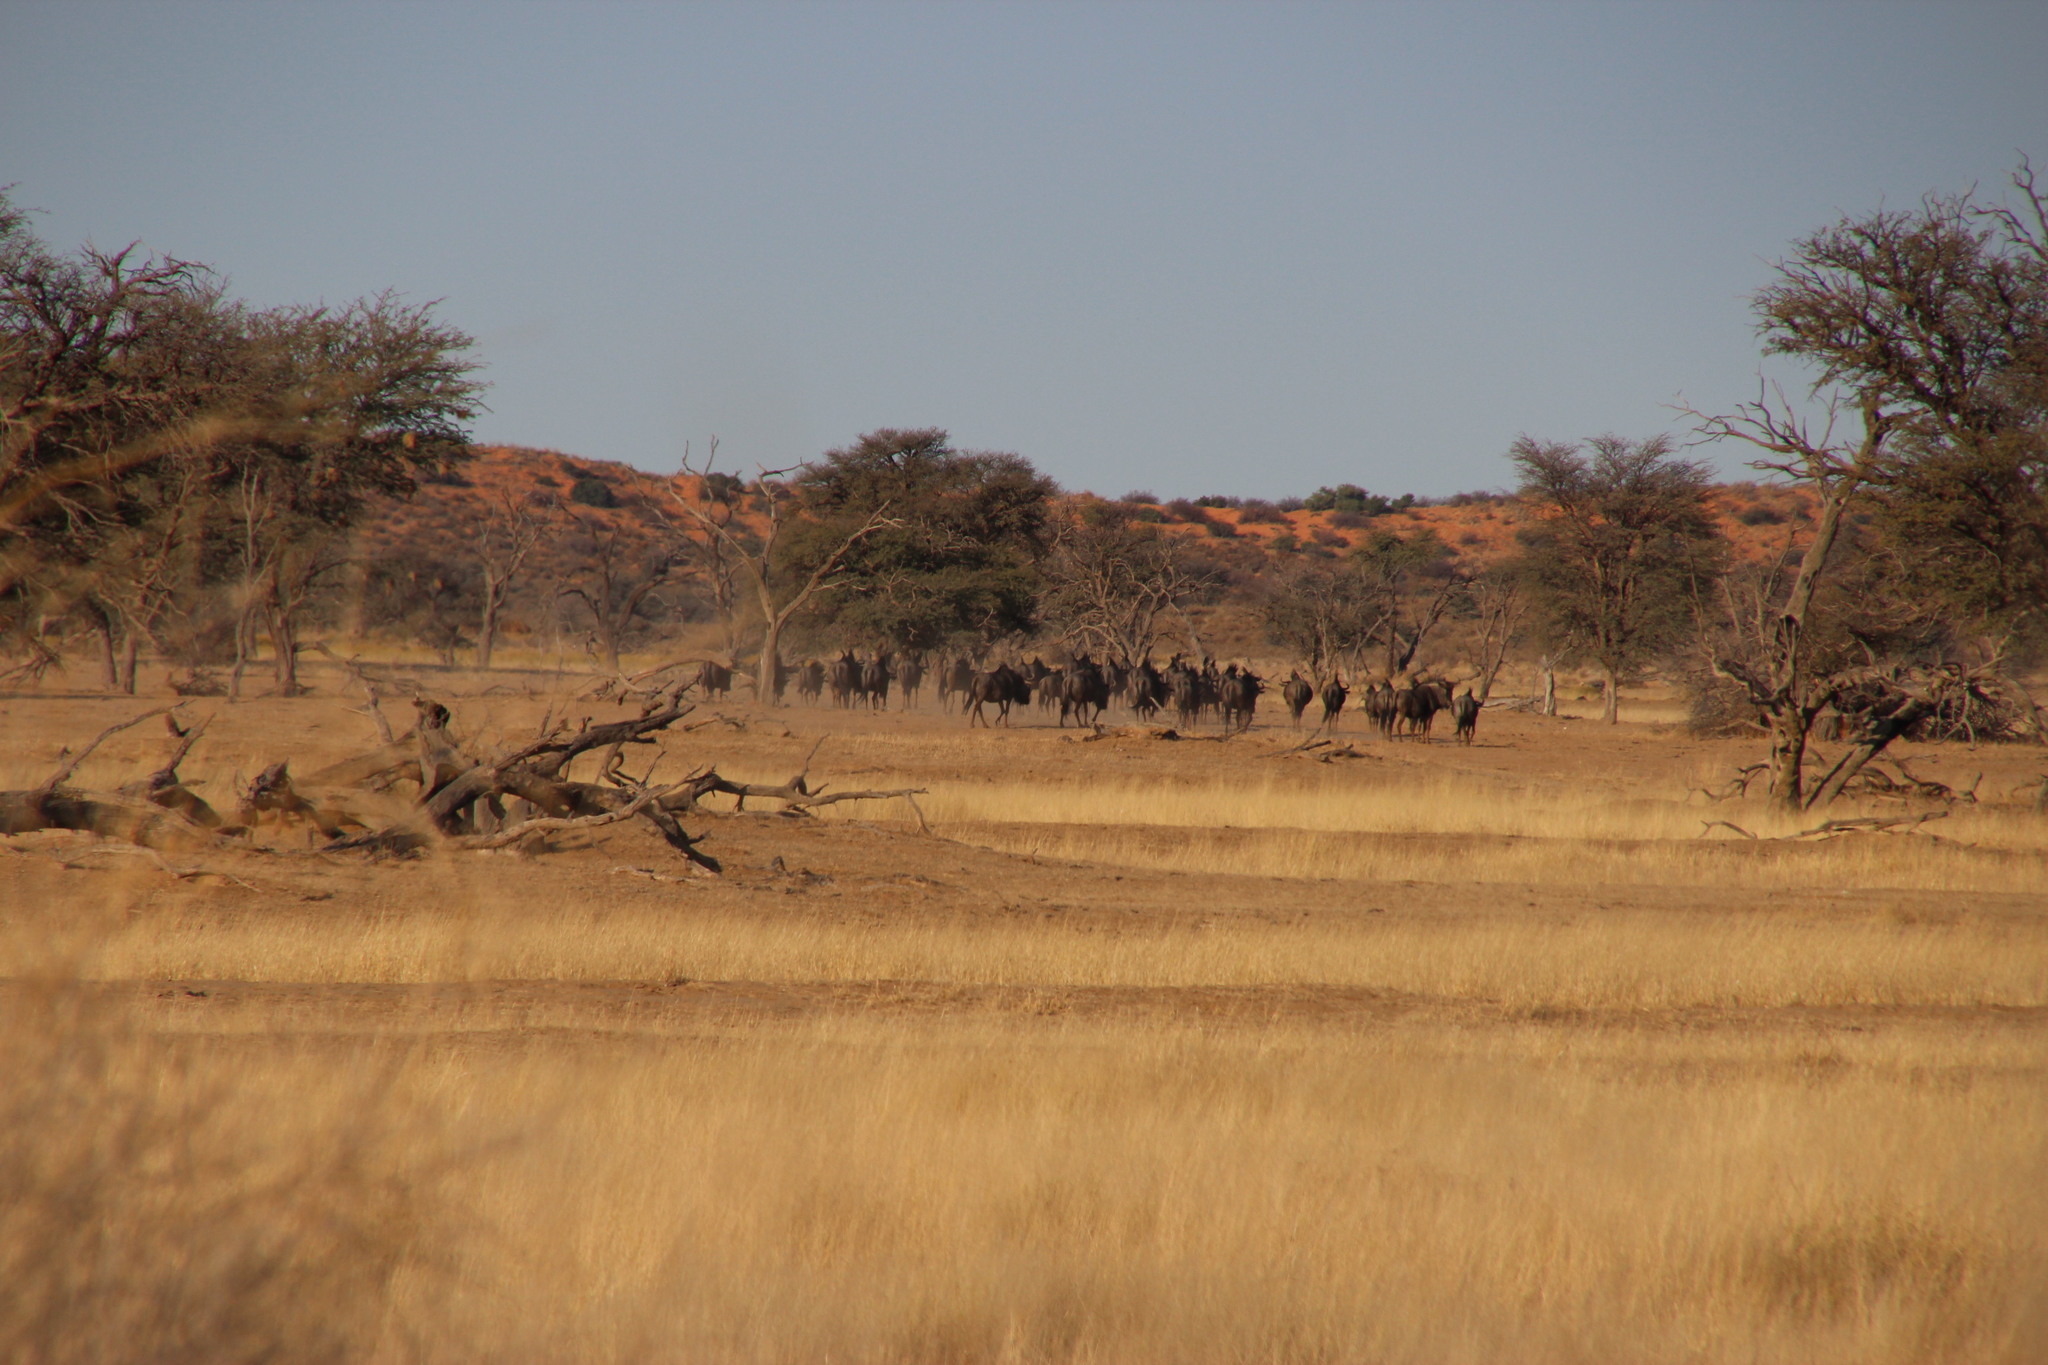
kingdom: Animalia
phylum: Chordata
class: Mammalia
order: Artiodactyla
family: Bovidae
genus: Connochaetes
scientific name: Connochaetes taurinus
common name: Blue wildebeest
